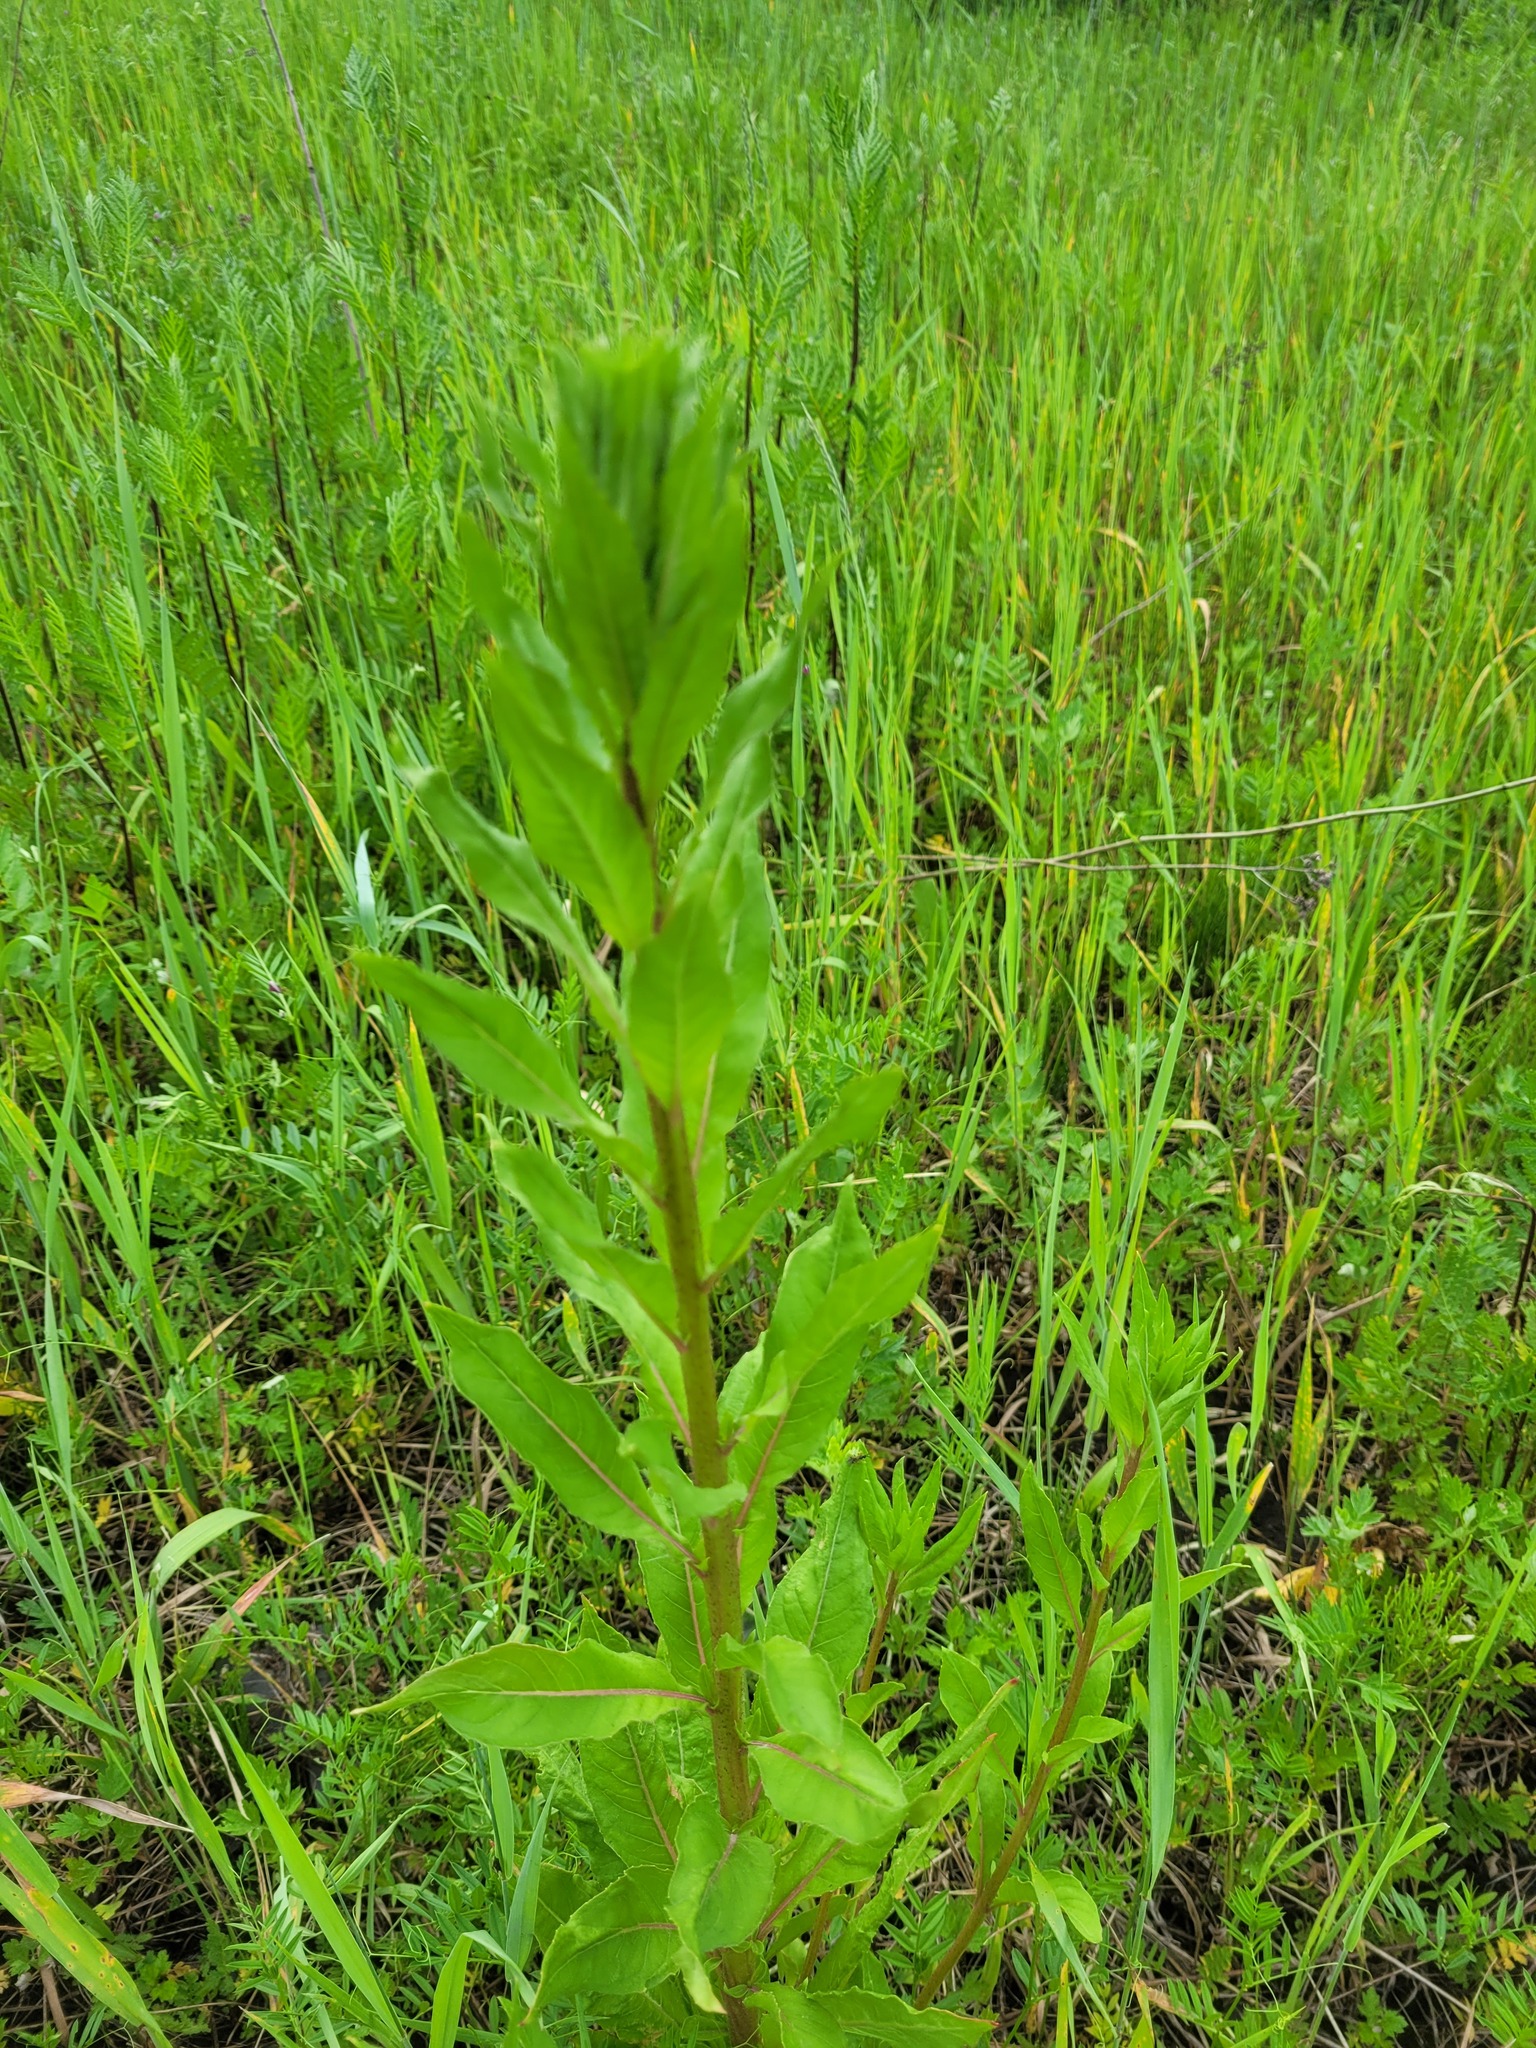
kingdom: Plantae
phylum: Tracheophyta
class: Magnoliopsida
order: Myrtales
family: Onagraceae
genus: Oenothera
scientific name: Oenothera rubricaulis
